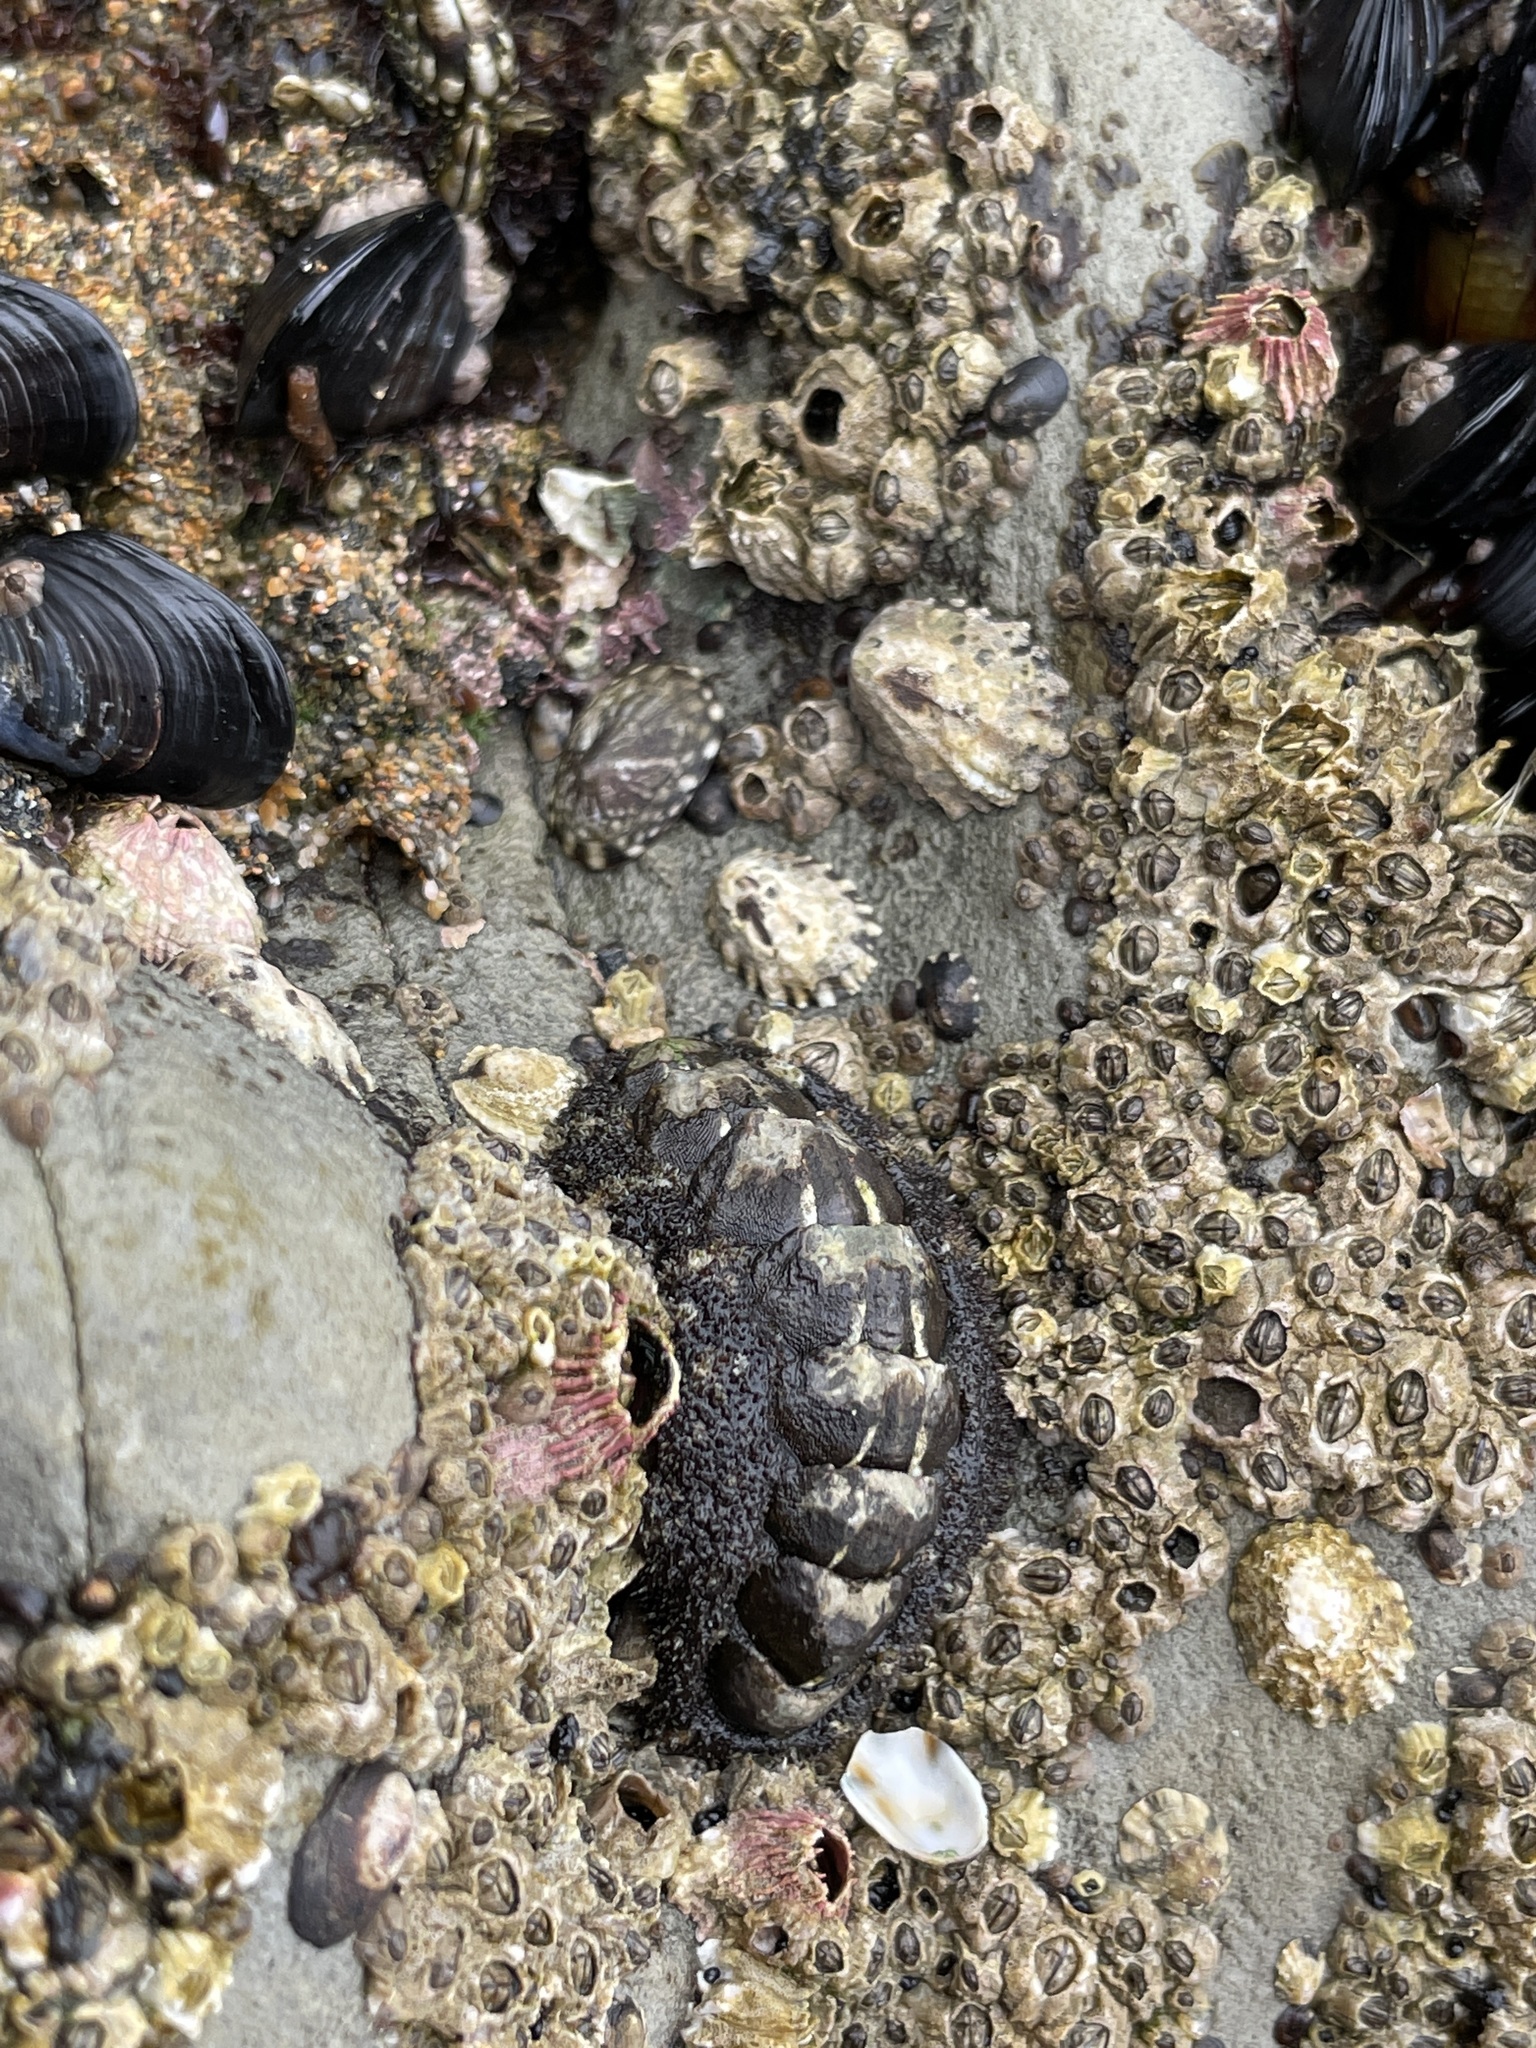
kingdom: Animalia
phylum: Mollusca
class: Polyplacophora
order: Chitonida
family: Tonicellidae
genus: Nuttallina
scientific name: Nuttallina californica
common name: California nuttall chiton
